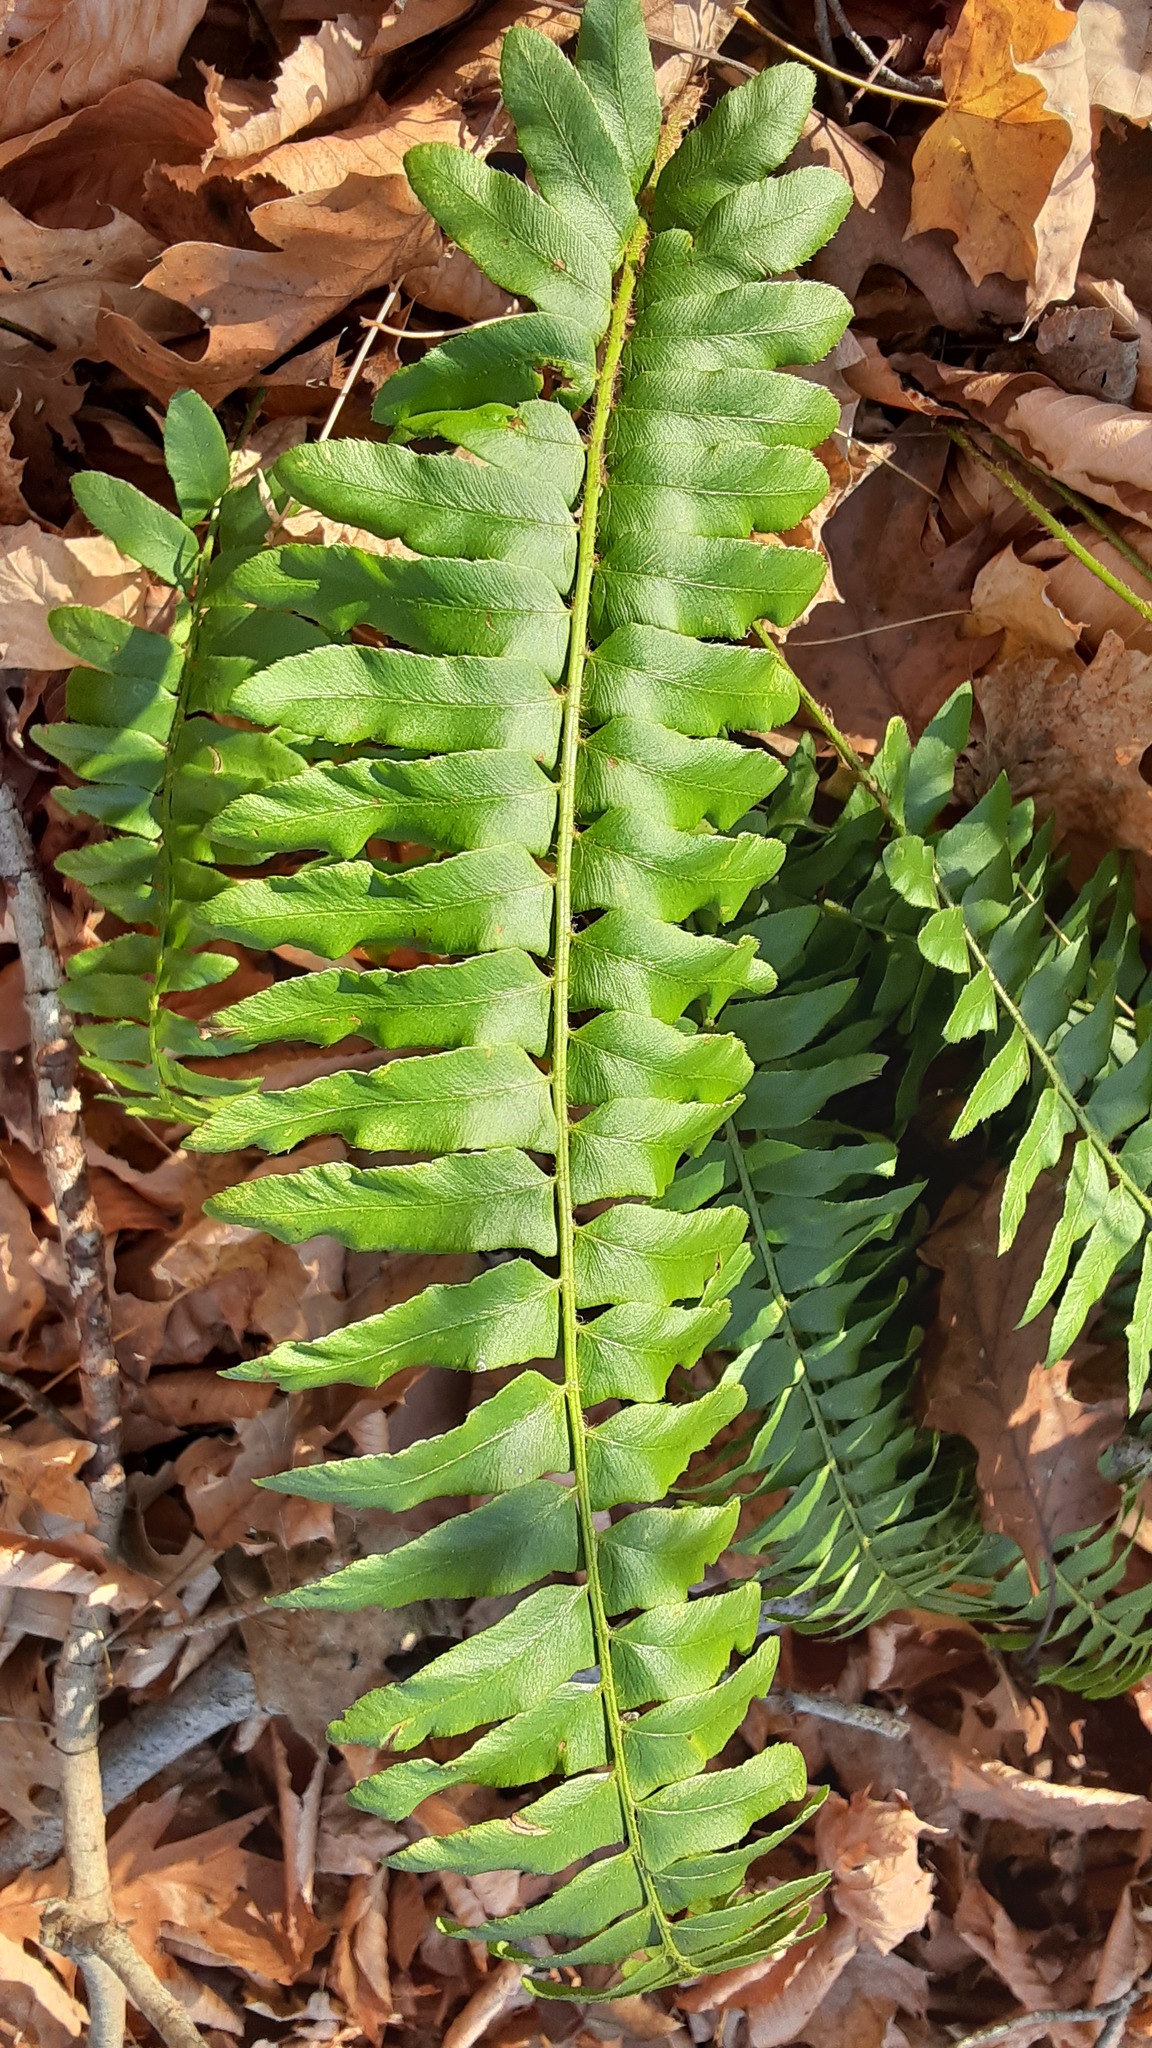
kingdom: Plantae
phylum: Tracheophyta
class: Polypodiopsida
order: Polypodiales
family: Dryopteridaceae
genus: Polystichum
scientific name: Polystichum acrostichoides
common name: Christmas fern
